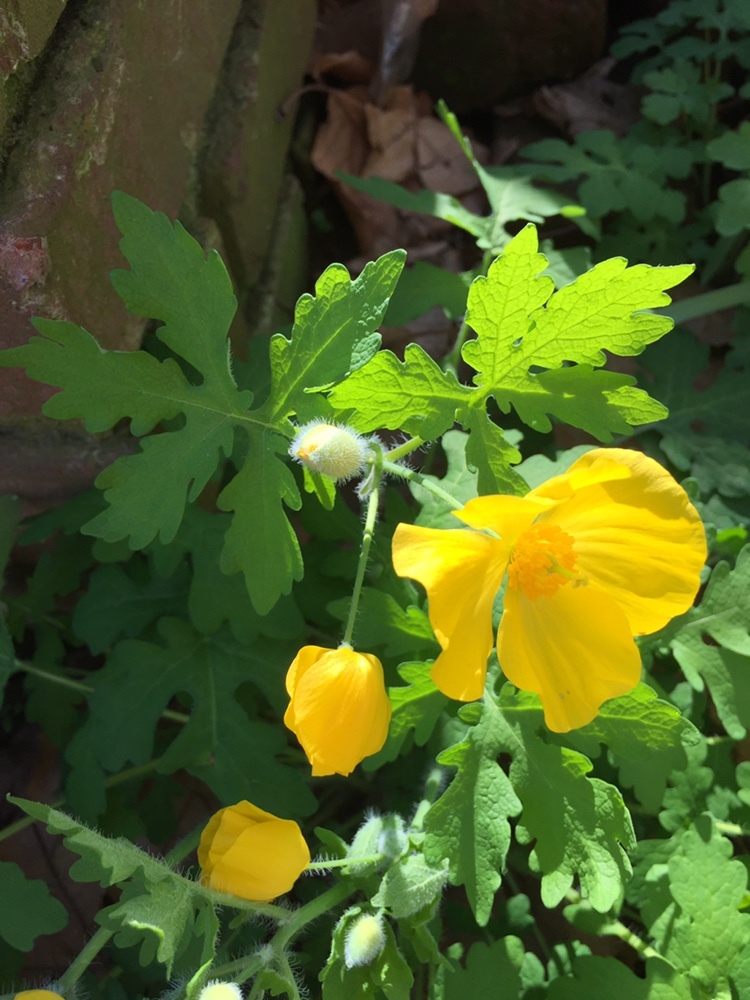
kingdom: Plantae
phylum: Tracheophyta
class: Magnoliopsida
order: Ranunculales
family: Papaveraceae
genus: Stylophorum
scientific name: Stylophorum diphyllum
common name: Celandine poppy
